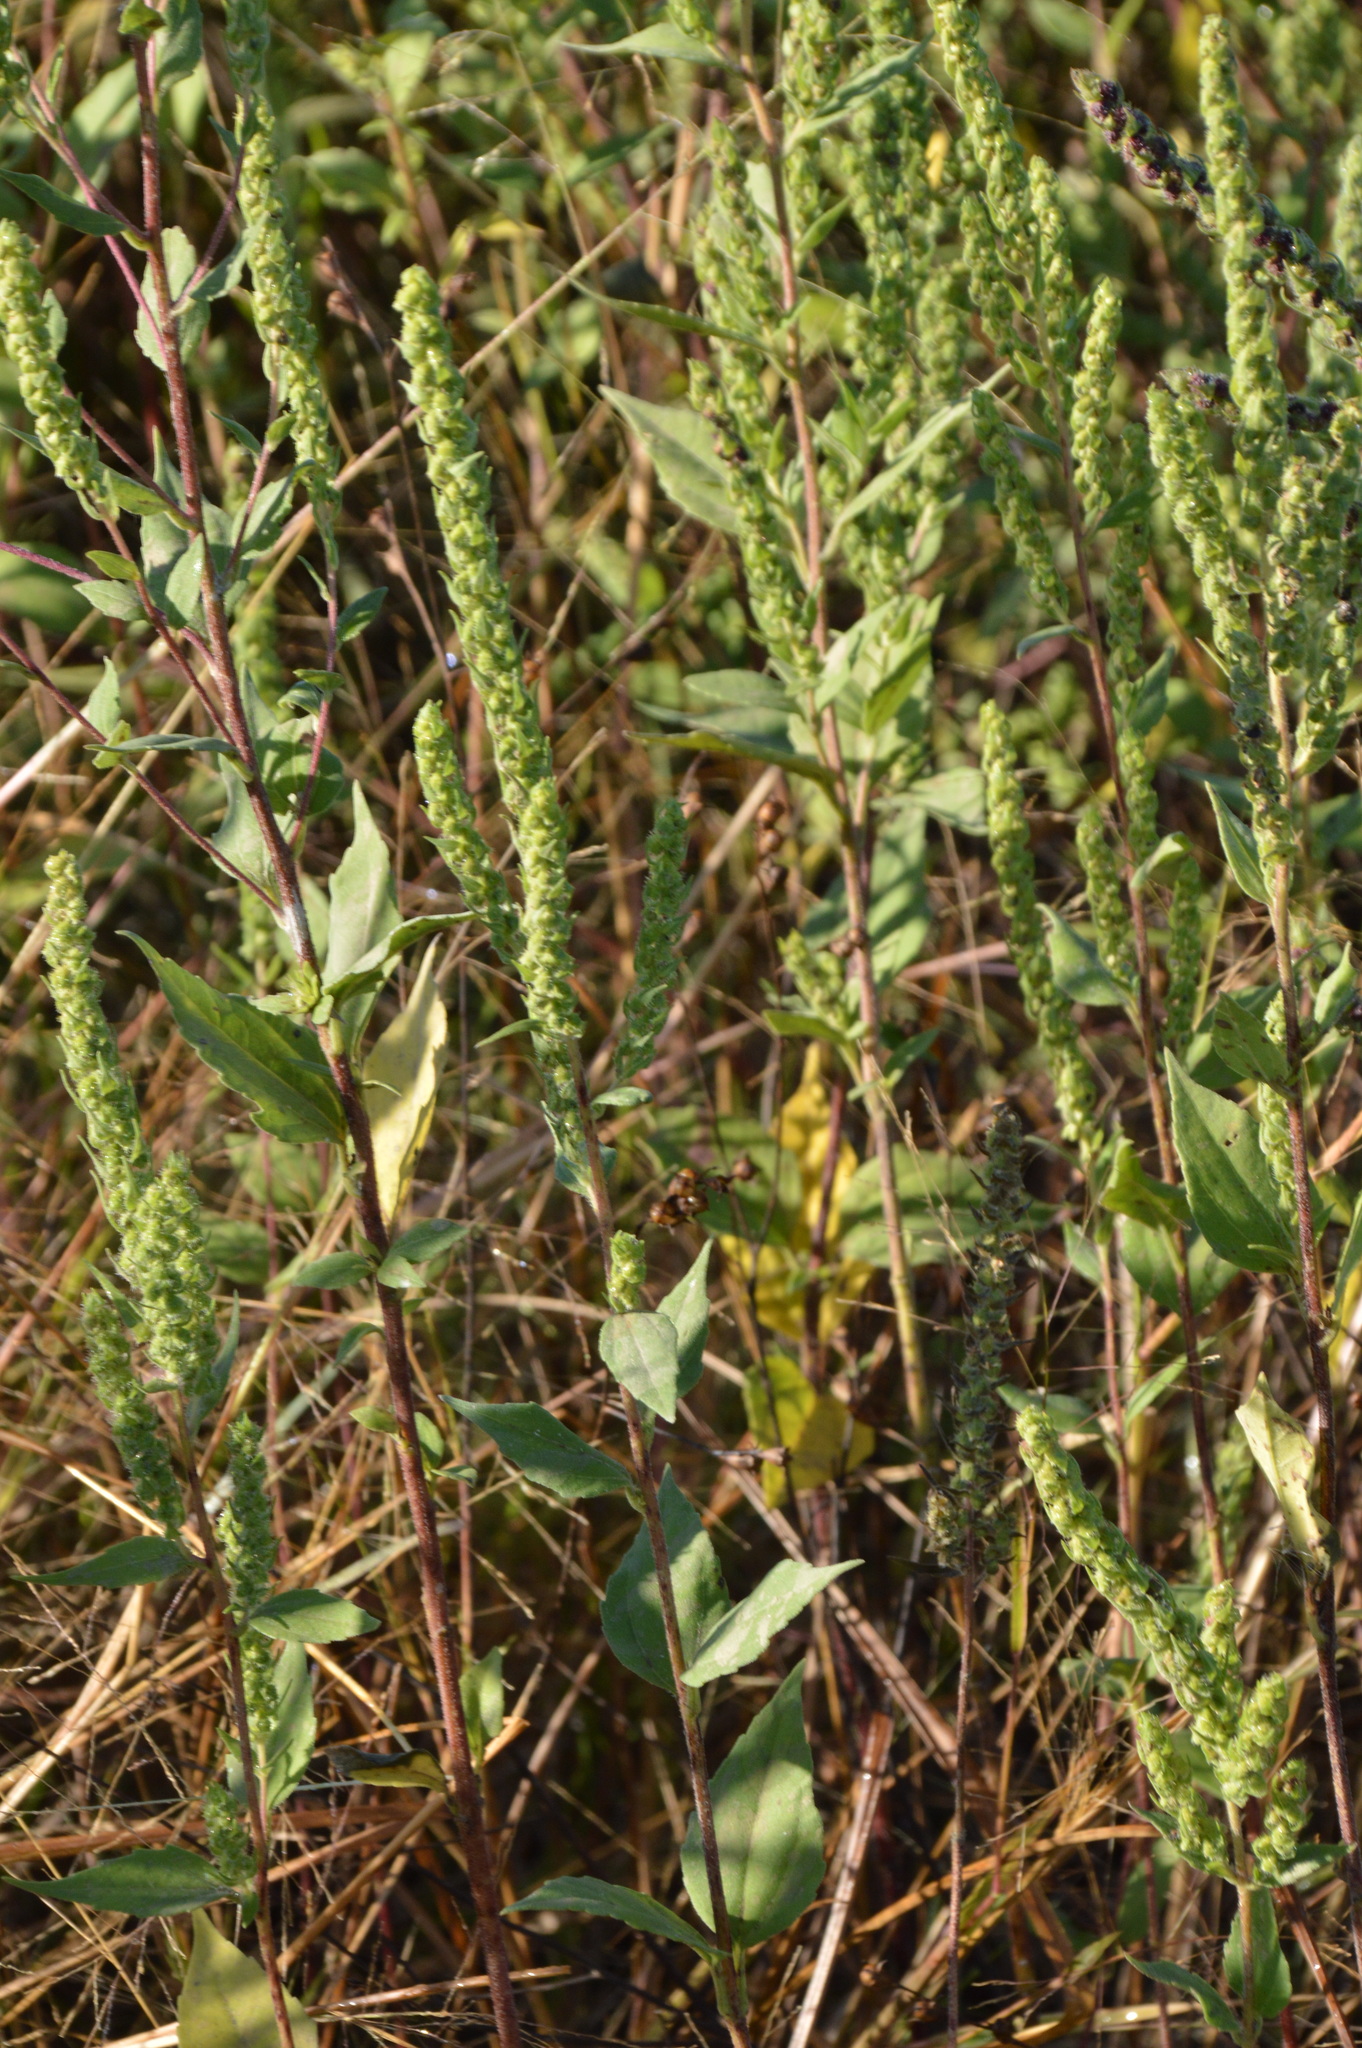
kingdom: Plantae
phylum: Tracheophyta
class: Magnoliopsida
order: Asterales
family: Asteraceae
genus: Iva
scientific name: Iva annua
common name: Marsh-elder
